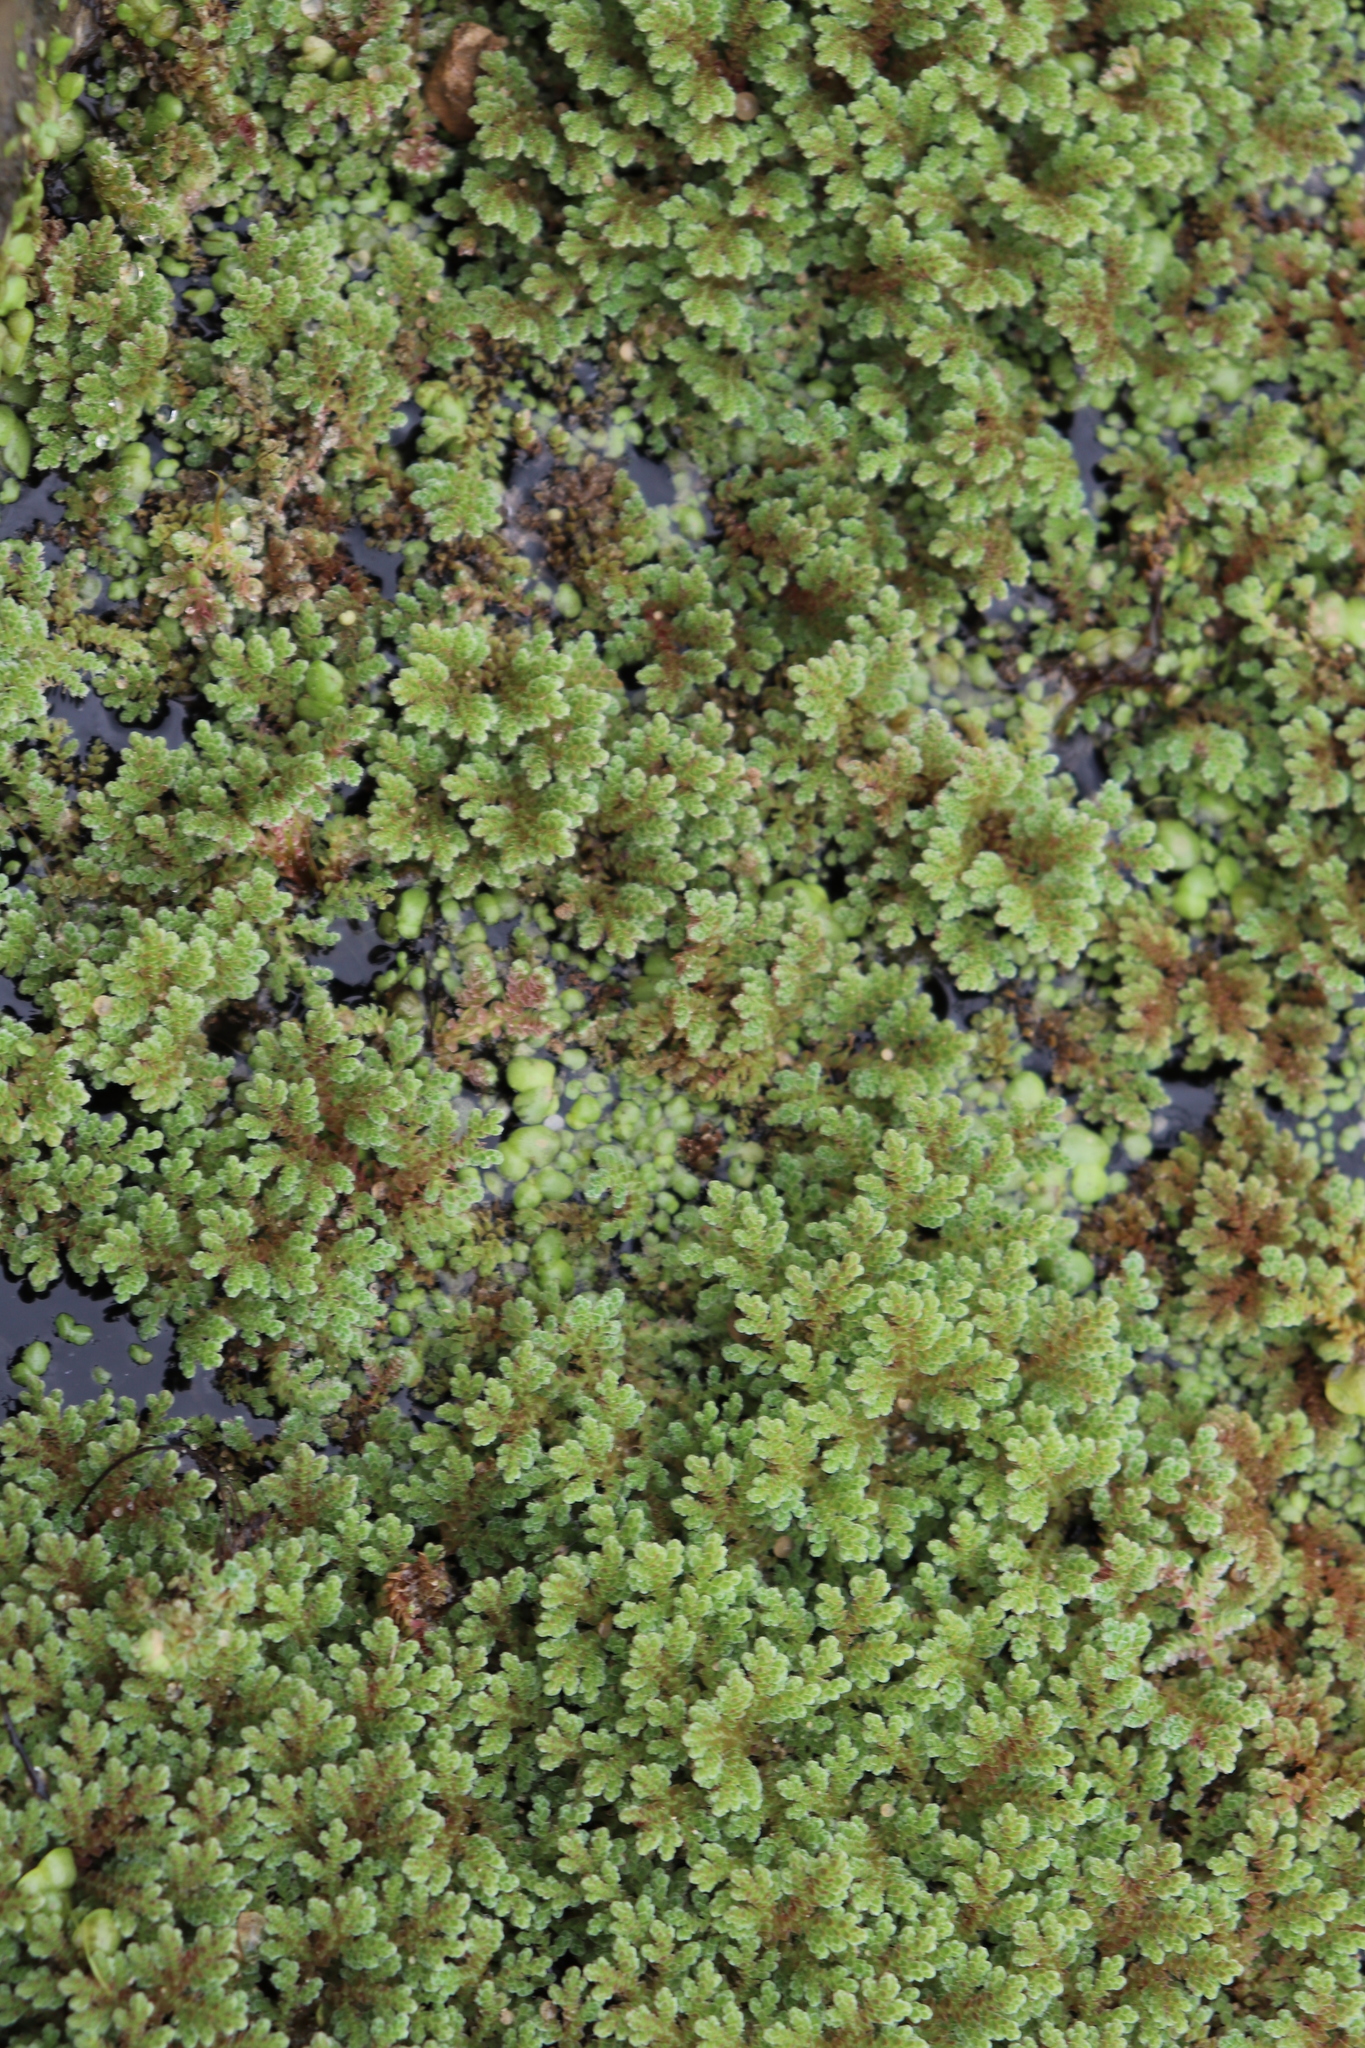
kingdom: Plantae
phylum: Tracheophyta
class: Polypodiopsida
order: Salviniales
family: Salviniaceae
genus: Azolla
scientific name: Azolla filiculoides
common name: Water fern
